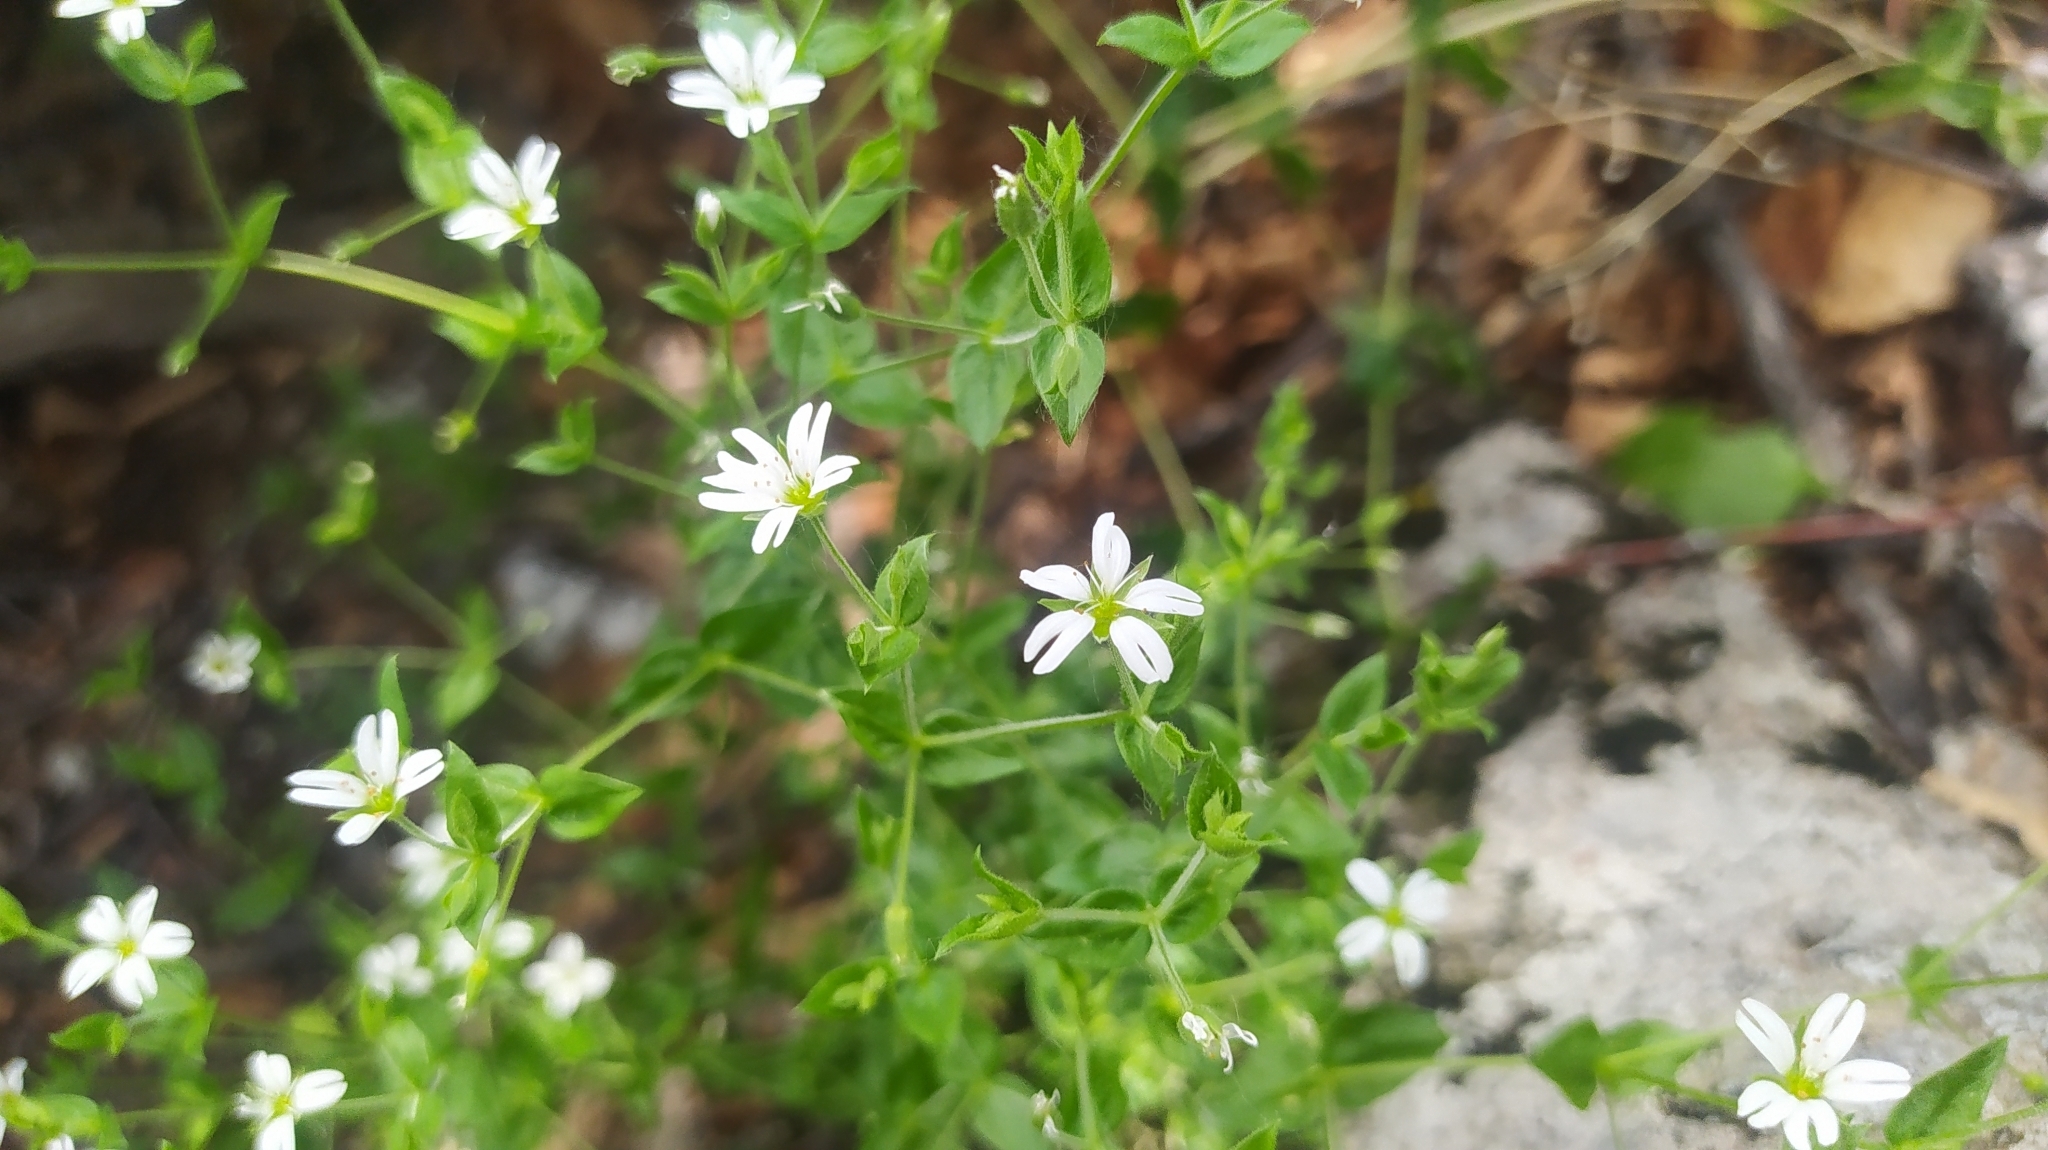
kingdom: Plantae
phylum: Tracheophyta
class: Magnoliopsida
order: Caryophyllales
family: Caryophyllaceae
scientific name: Caryophyllaceae
